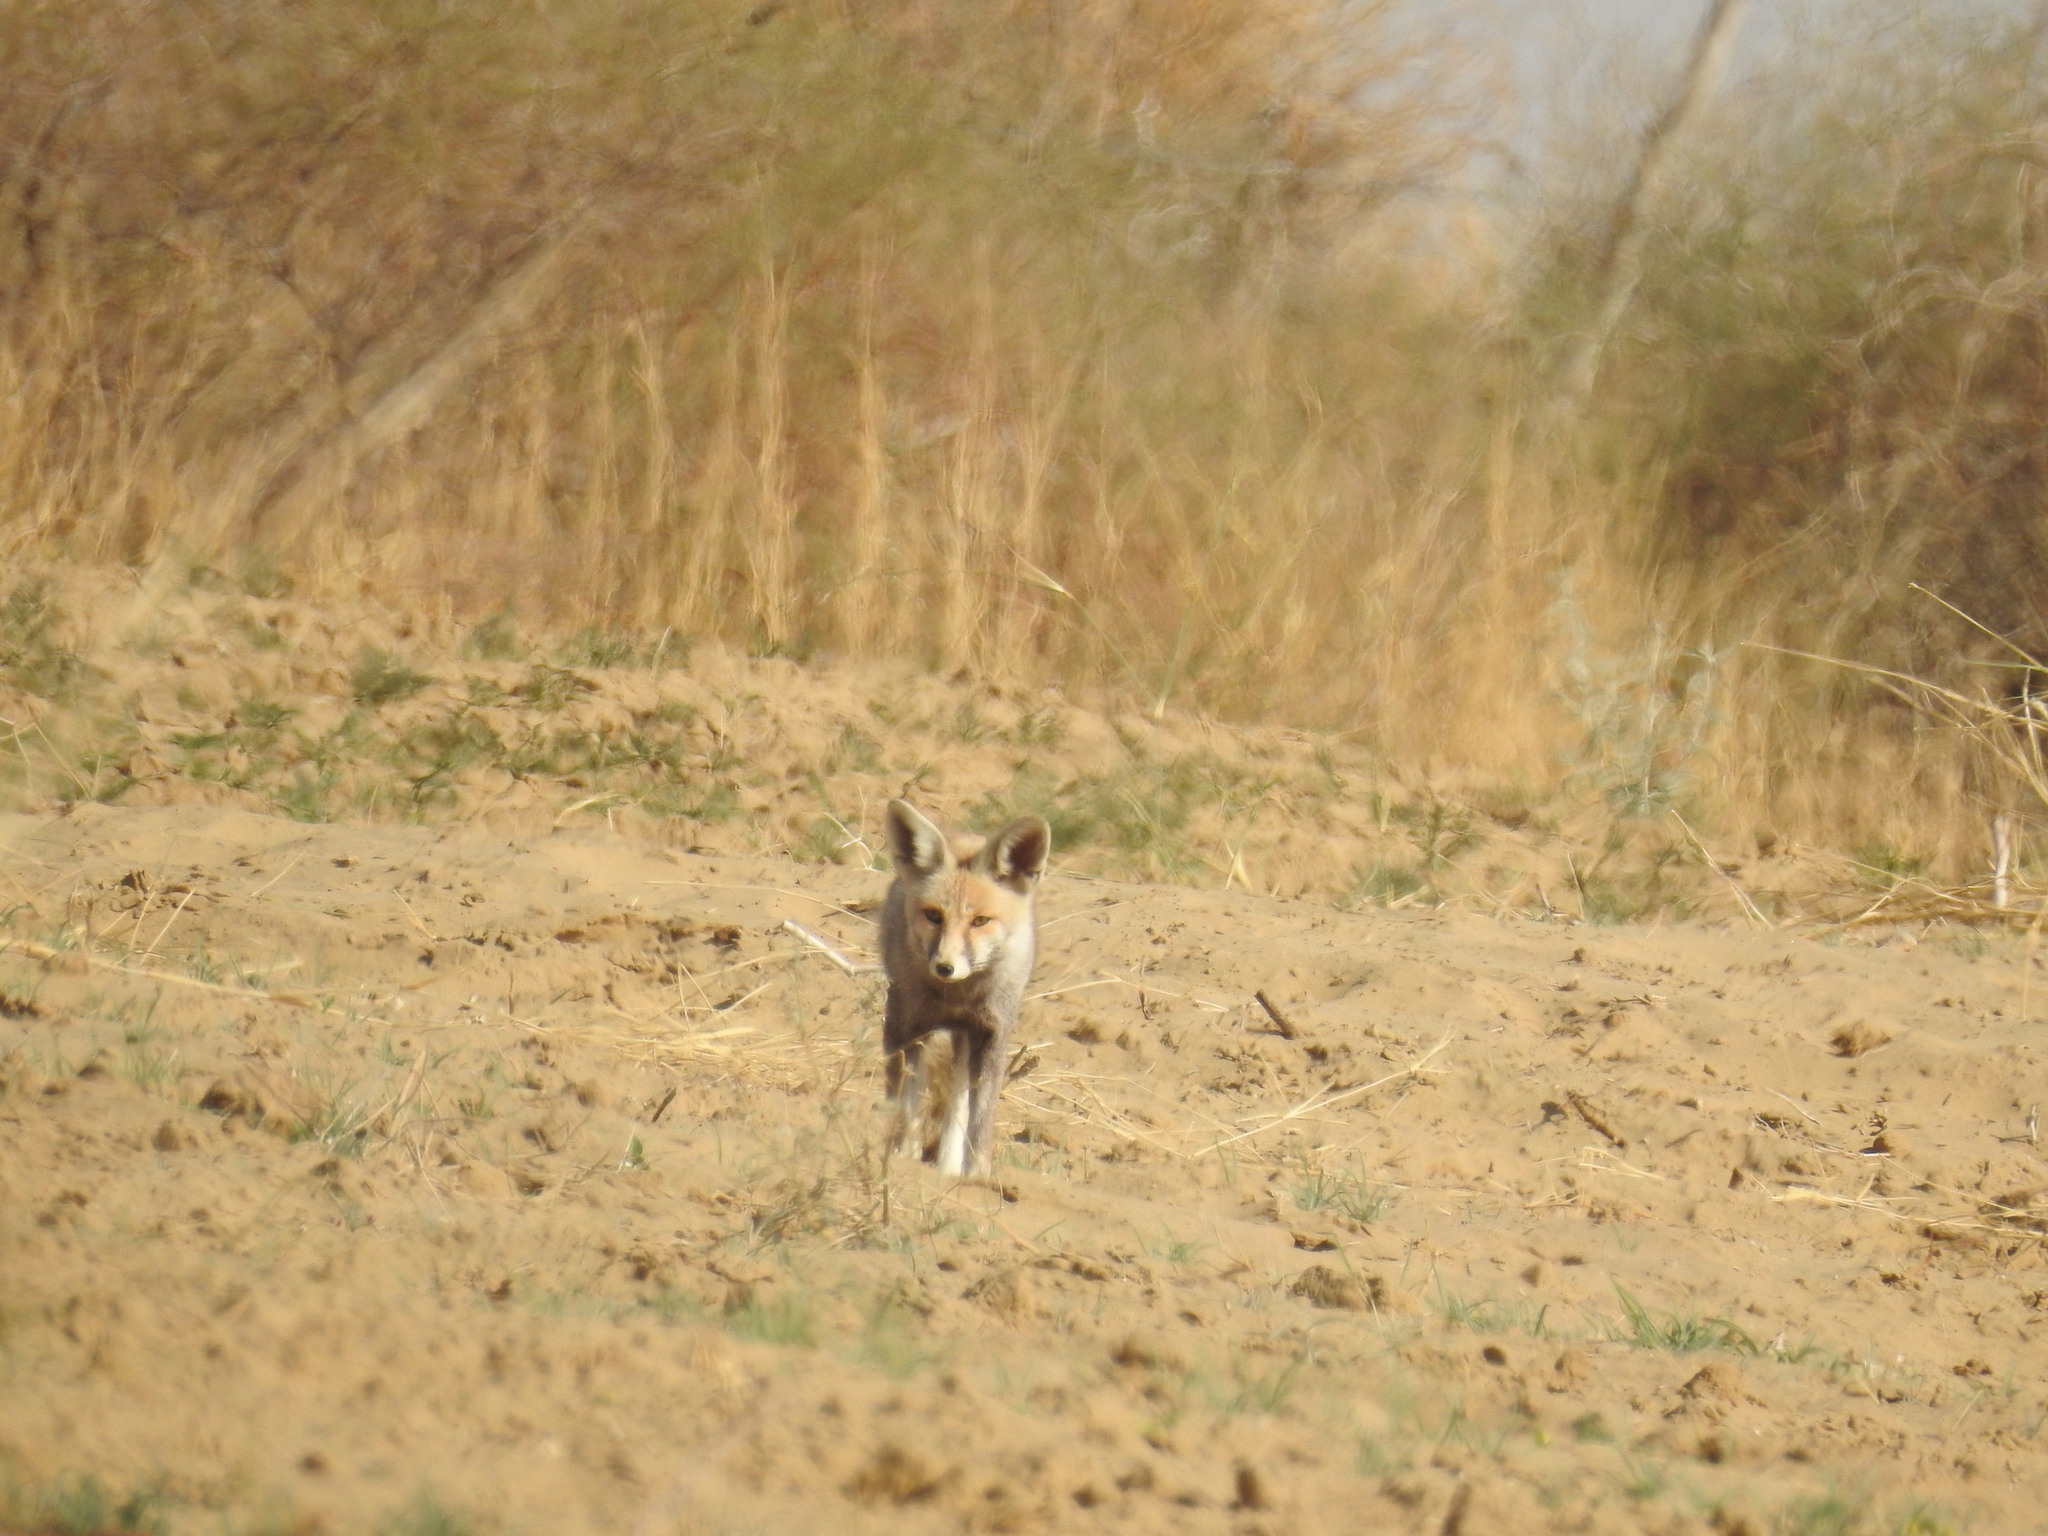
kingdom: Animalia
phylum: Chordata
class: Mammalia
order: Carnivora
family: Canidae
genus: Vulpes
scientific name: Vulpes vulpes
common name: Red fox
